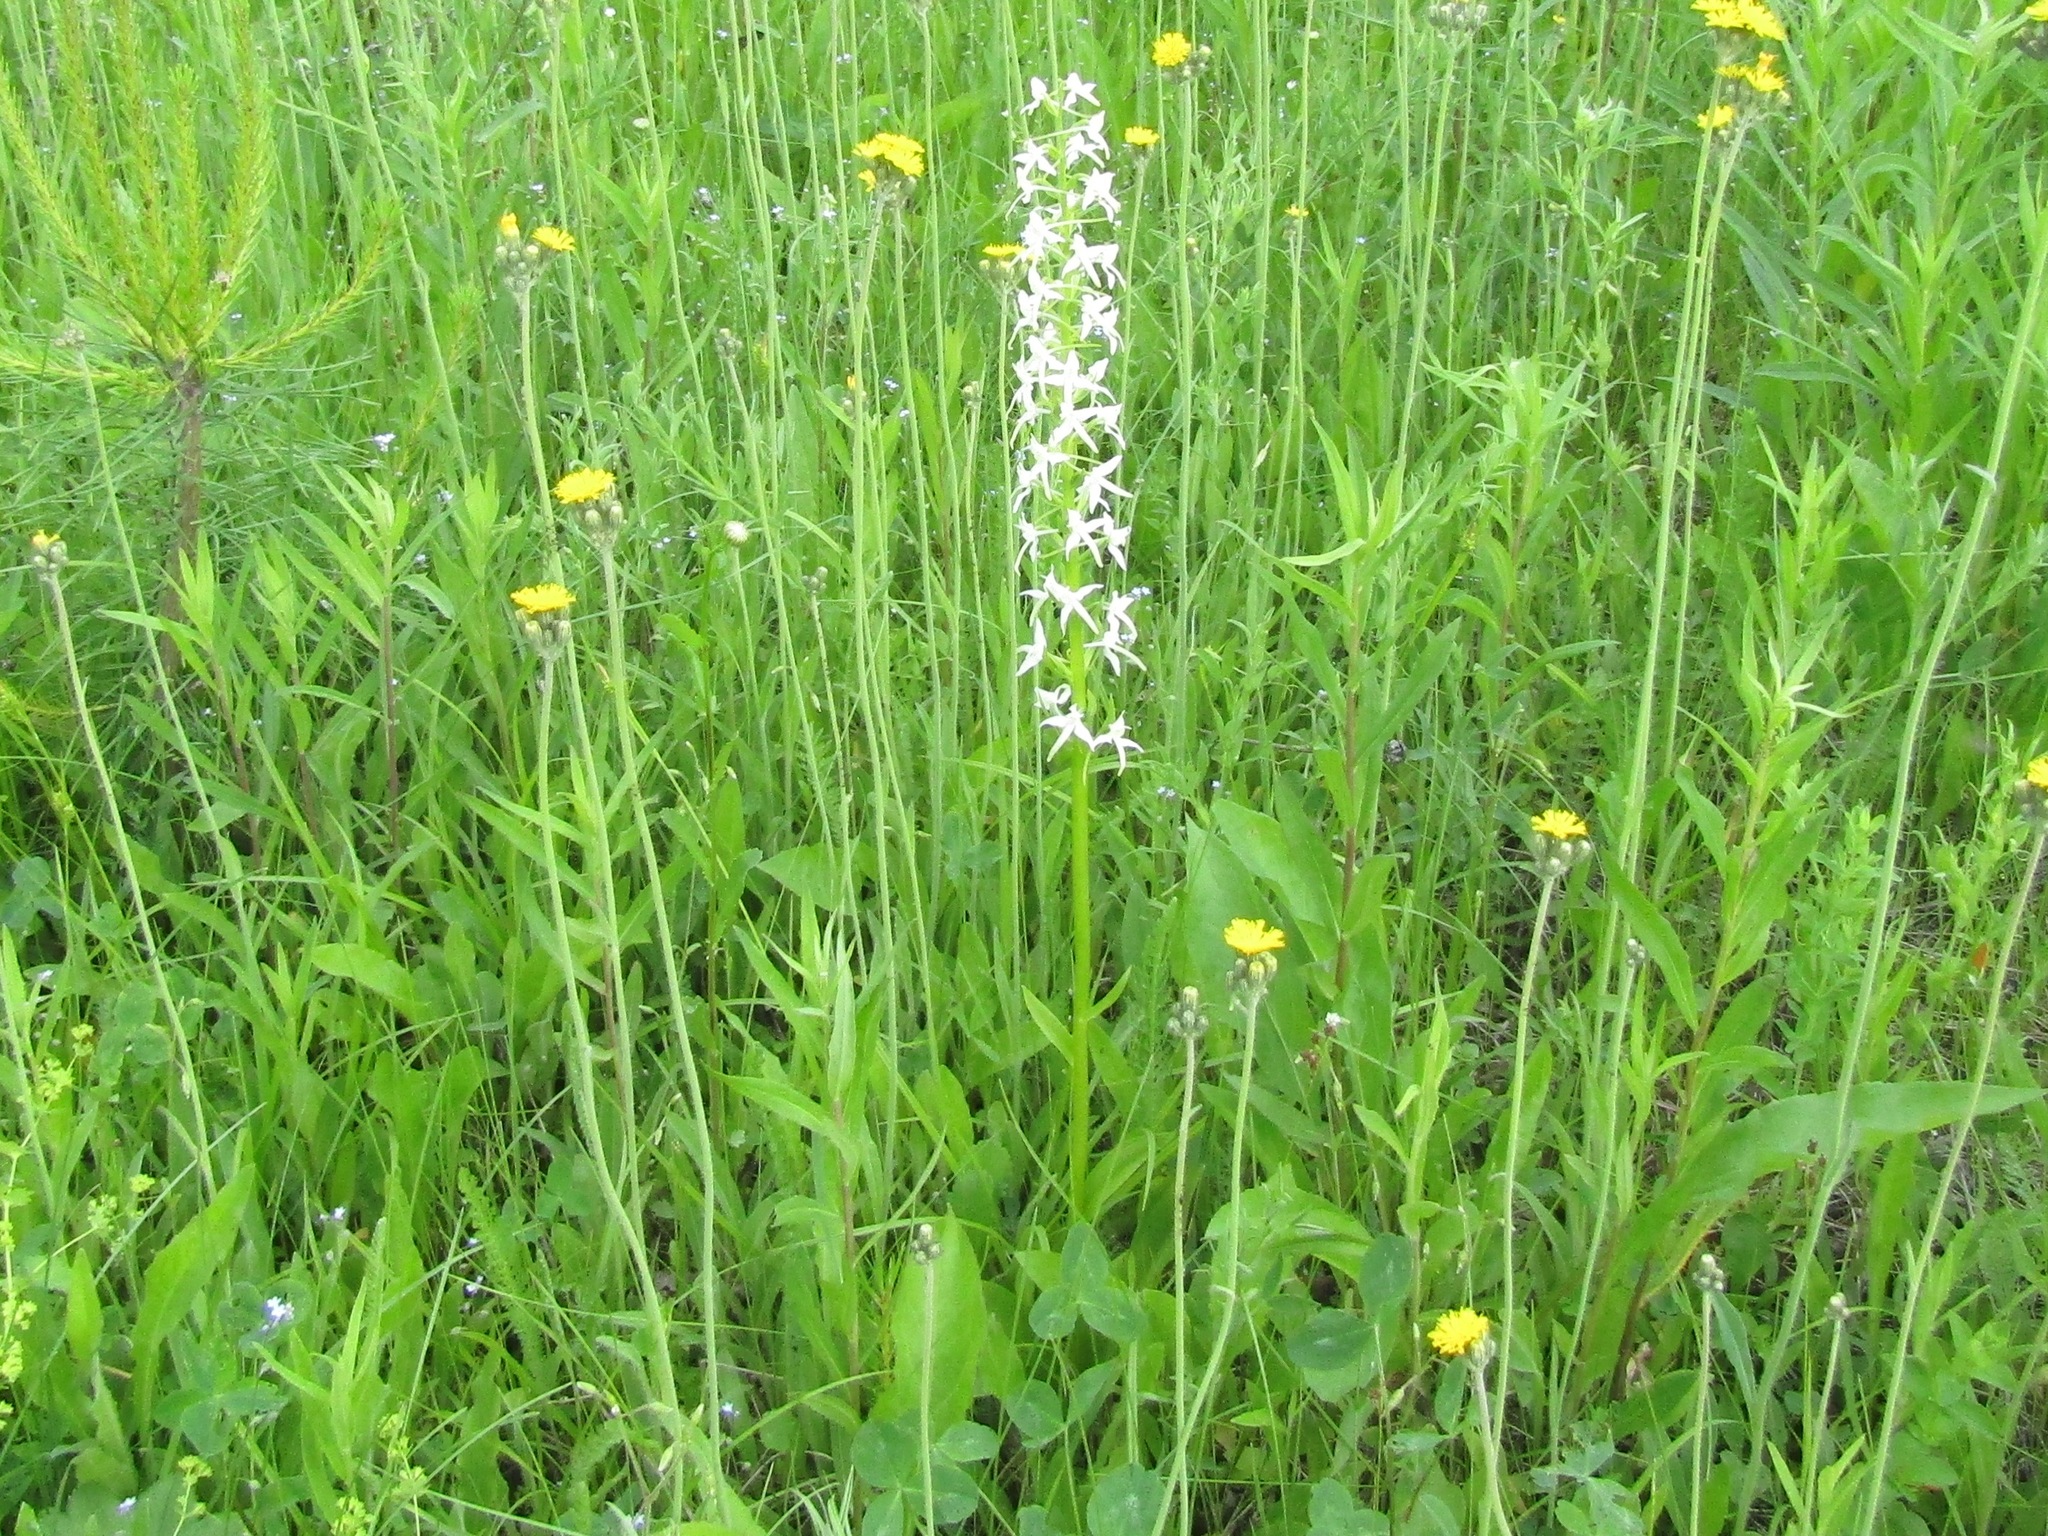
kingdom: Plantae
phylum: Tracheophyta
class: Liliopsida
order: Asparagales
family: Orchidaceae
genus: Platanthera
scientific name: Platanthera bifolia
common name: Lesser butterfly-orchid
